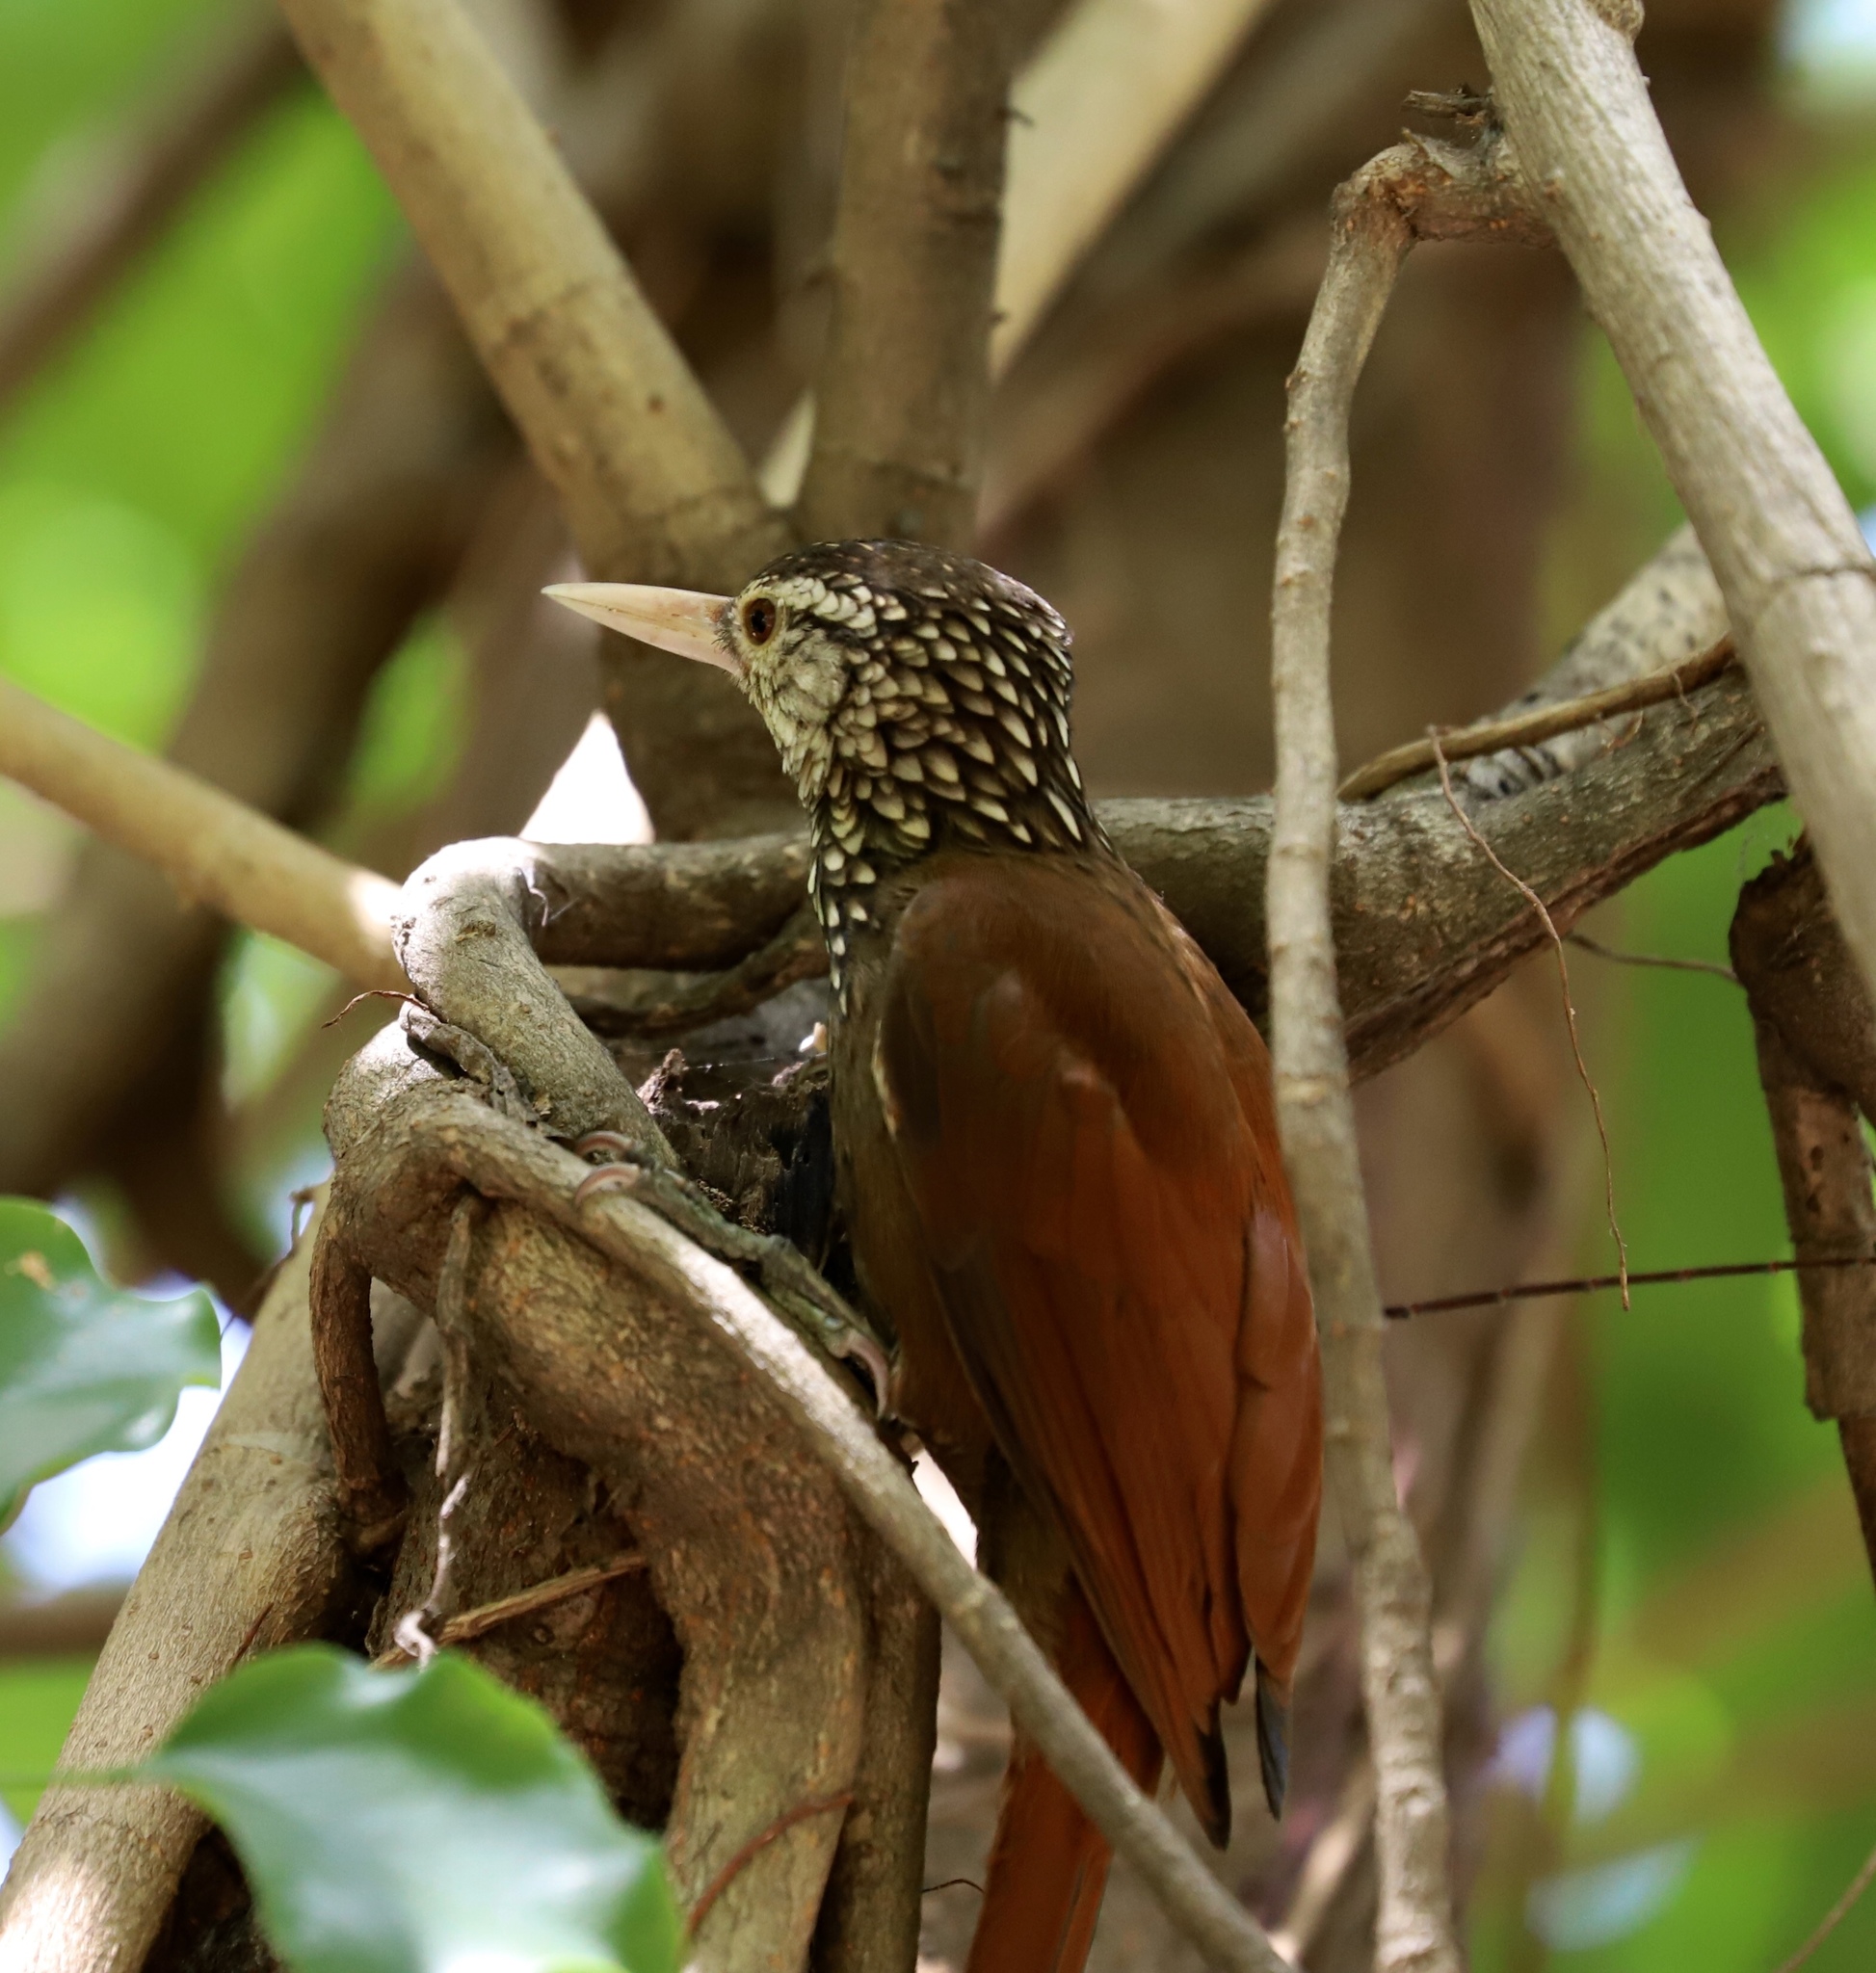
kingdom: Animalia
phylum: Chordata
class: Aves
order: Passeriformes
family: Furnariidae
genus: Xiphorhynchus
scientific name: Xiphorhynchus picus
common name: Straight-billed woodcreeper
